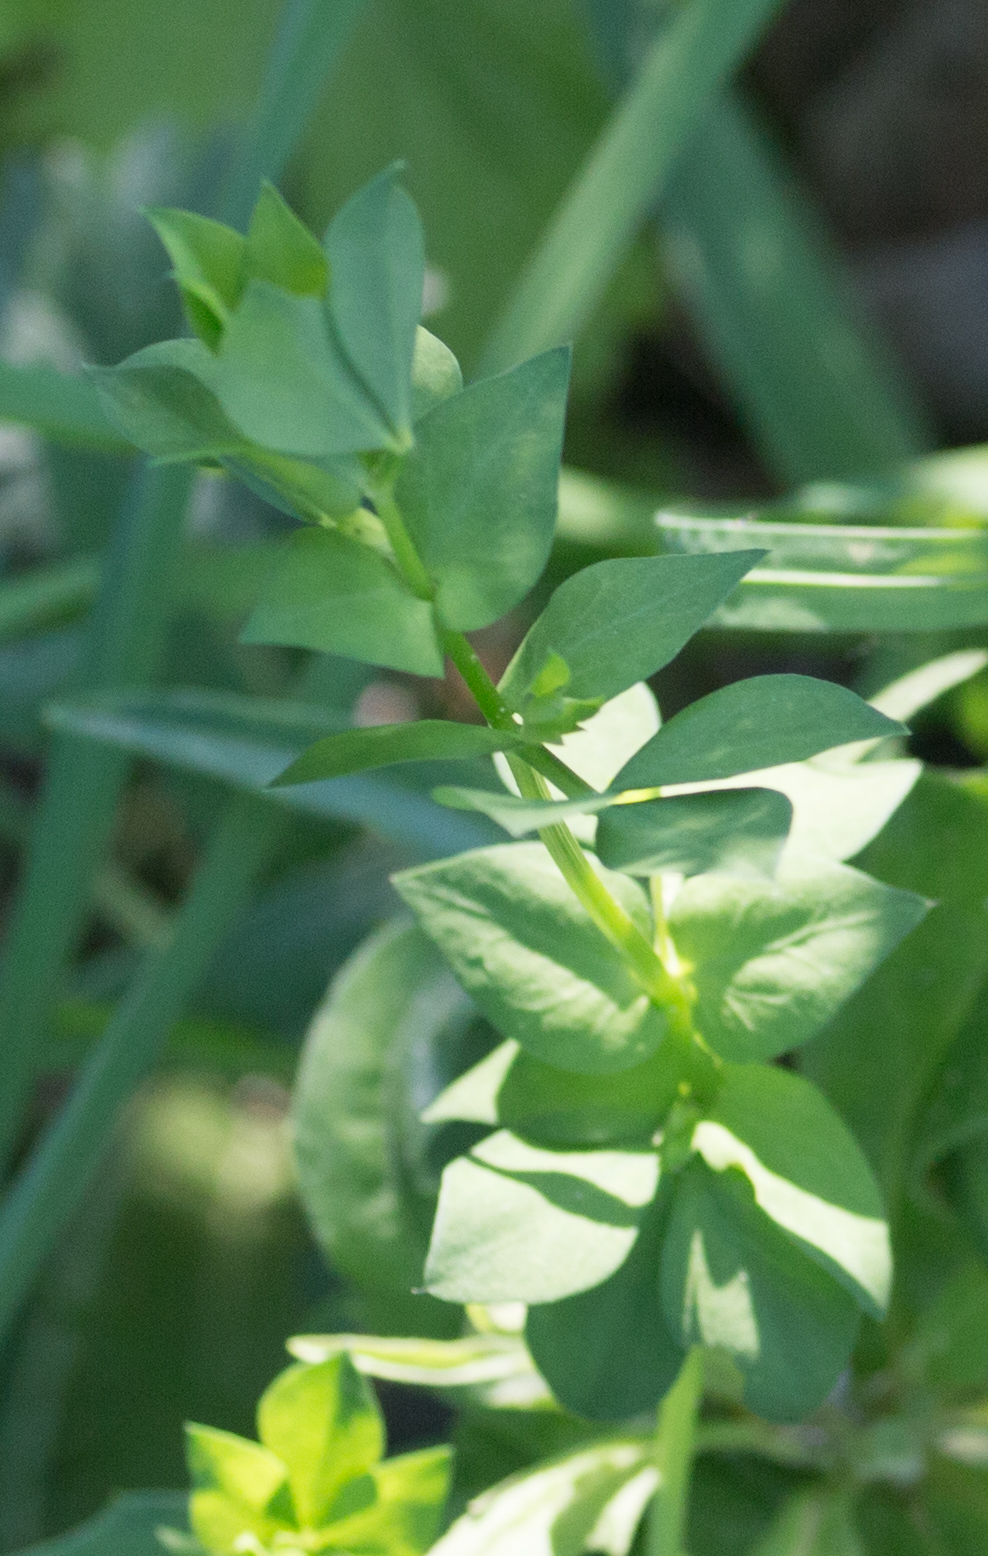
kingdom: Plantae
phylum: Tracheophyta
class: Magnoliopsida
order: Fabales
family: Fabaceae
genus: Lotus
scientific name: Lotus corniculatus
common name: Common bird's-foot-trefoil
